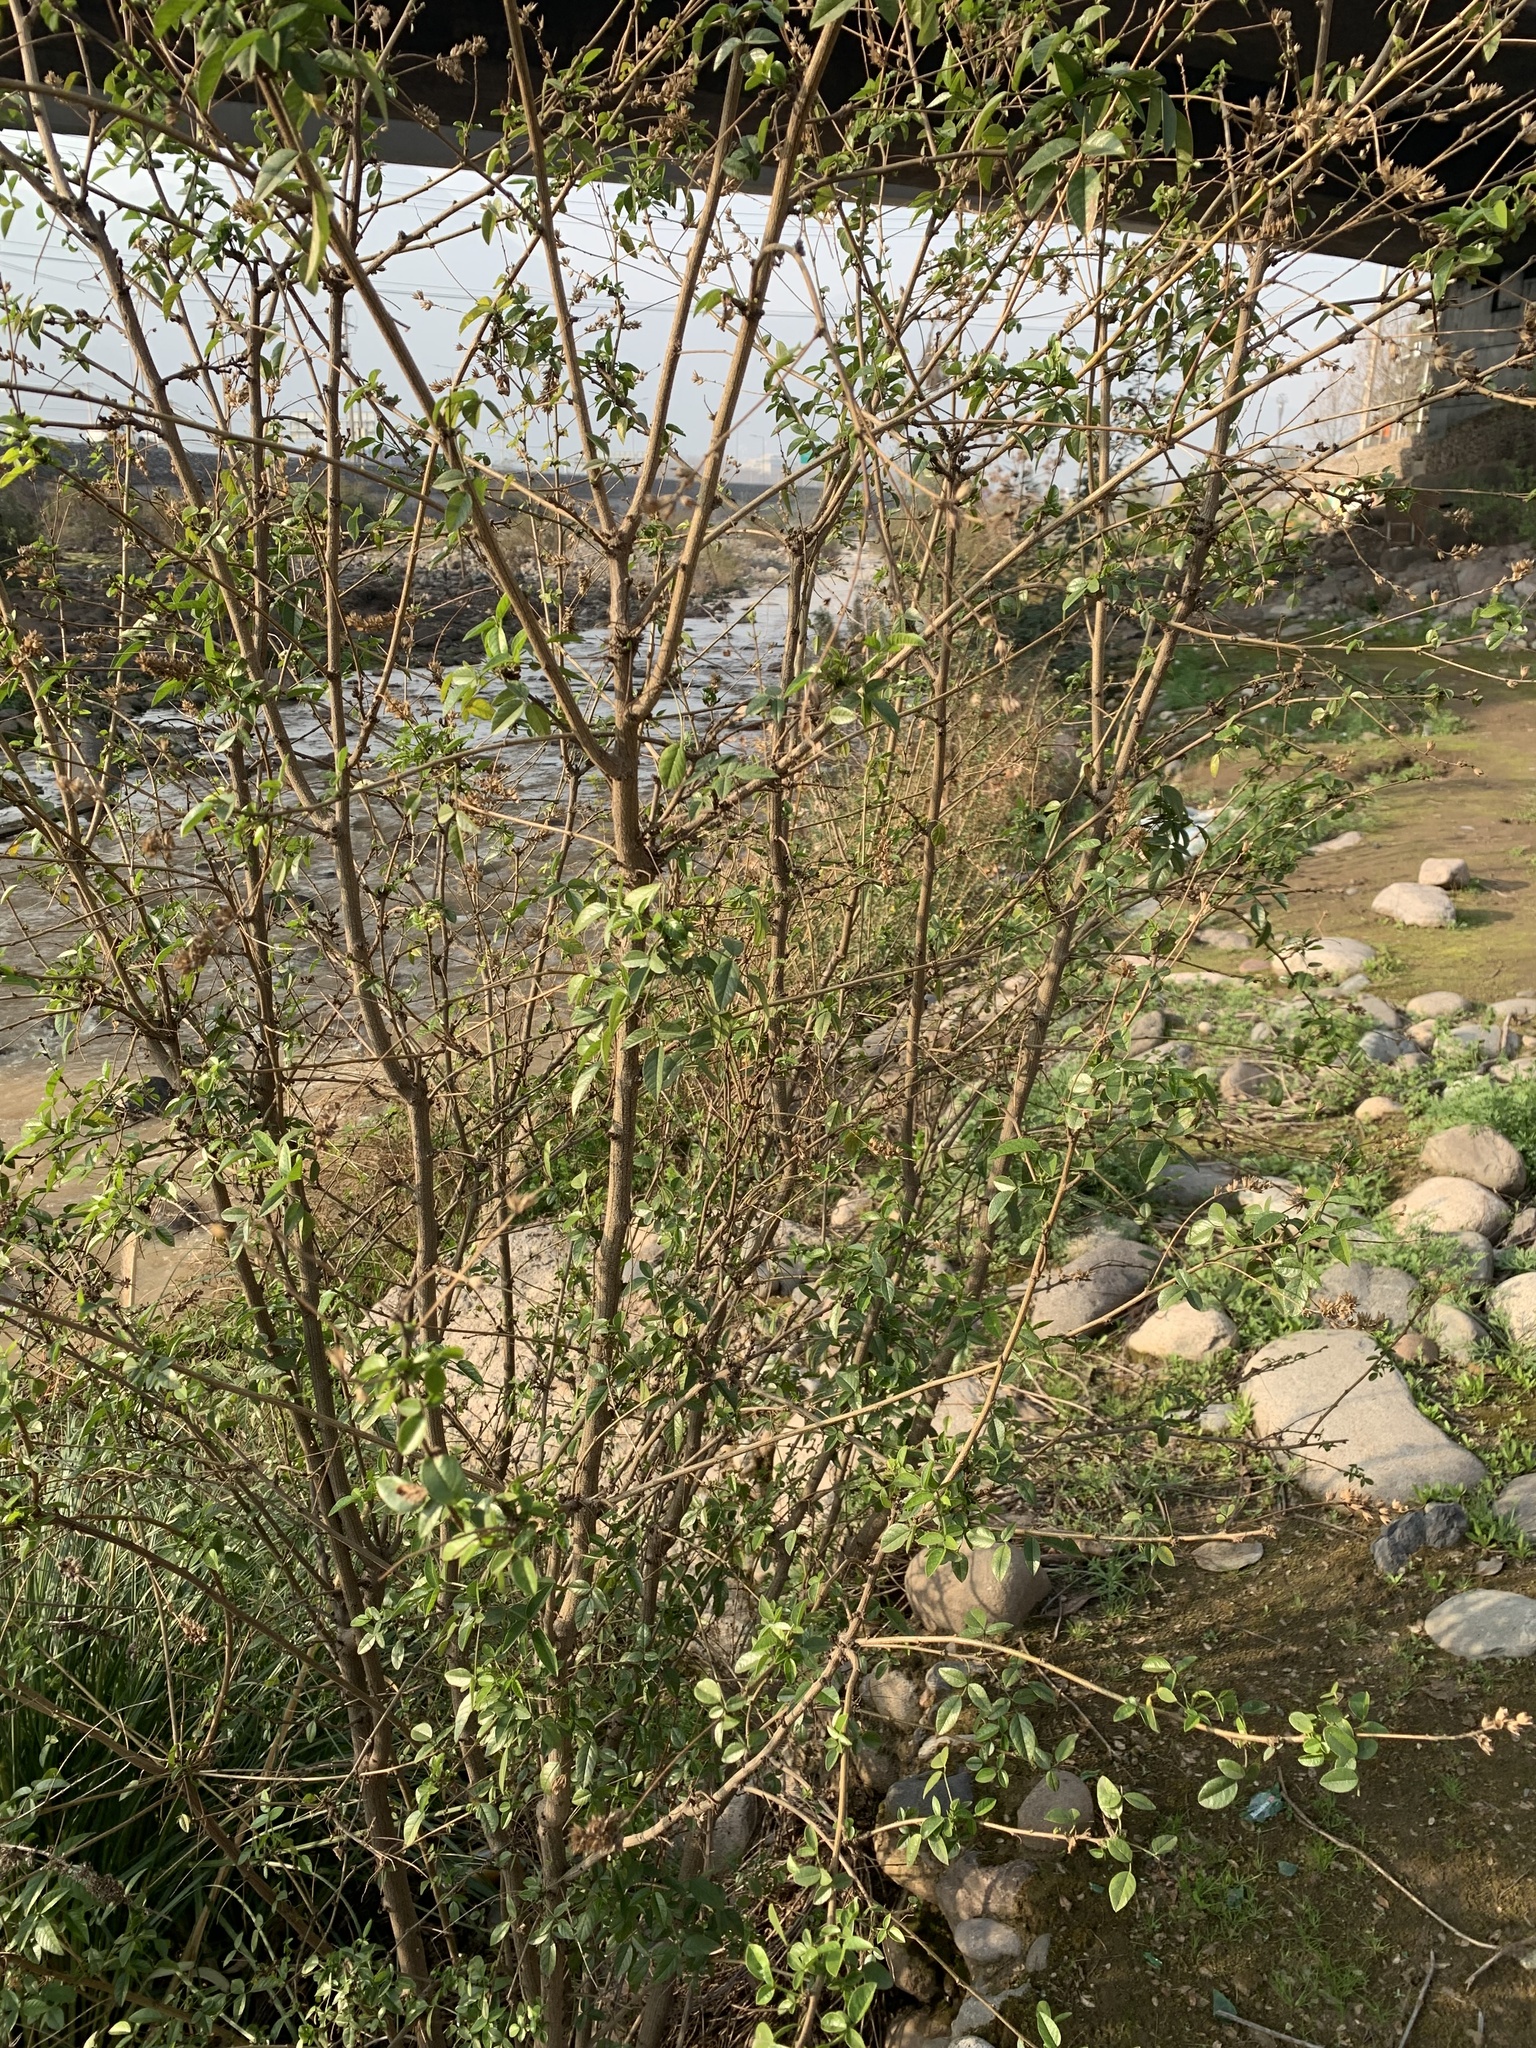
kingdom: Plantae
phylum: Tracheophyta
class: Magnoliopsida
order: Fabales
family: Fabaceae
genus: Psoralea
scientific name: Psoralea Otholobium glandulosum
